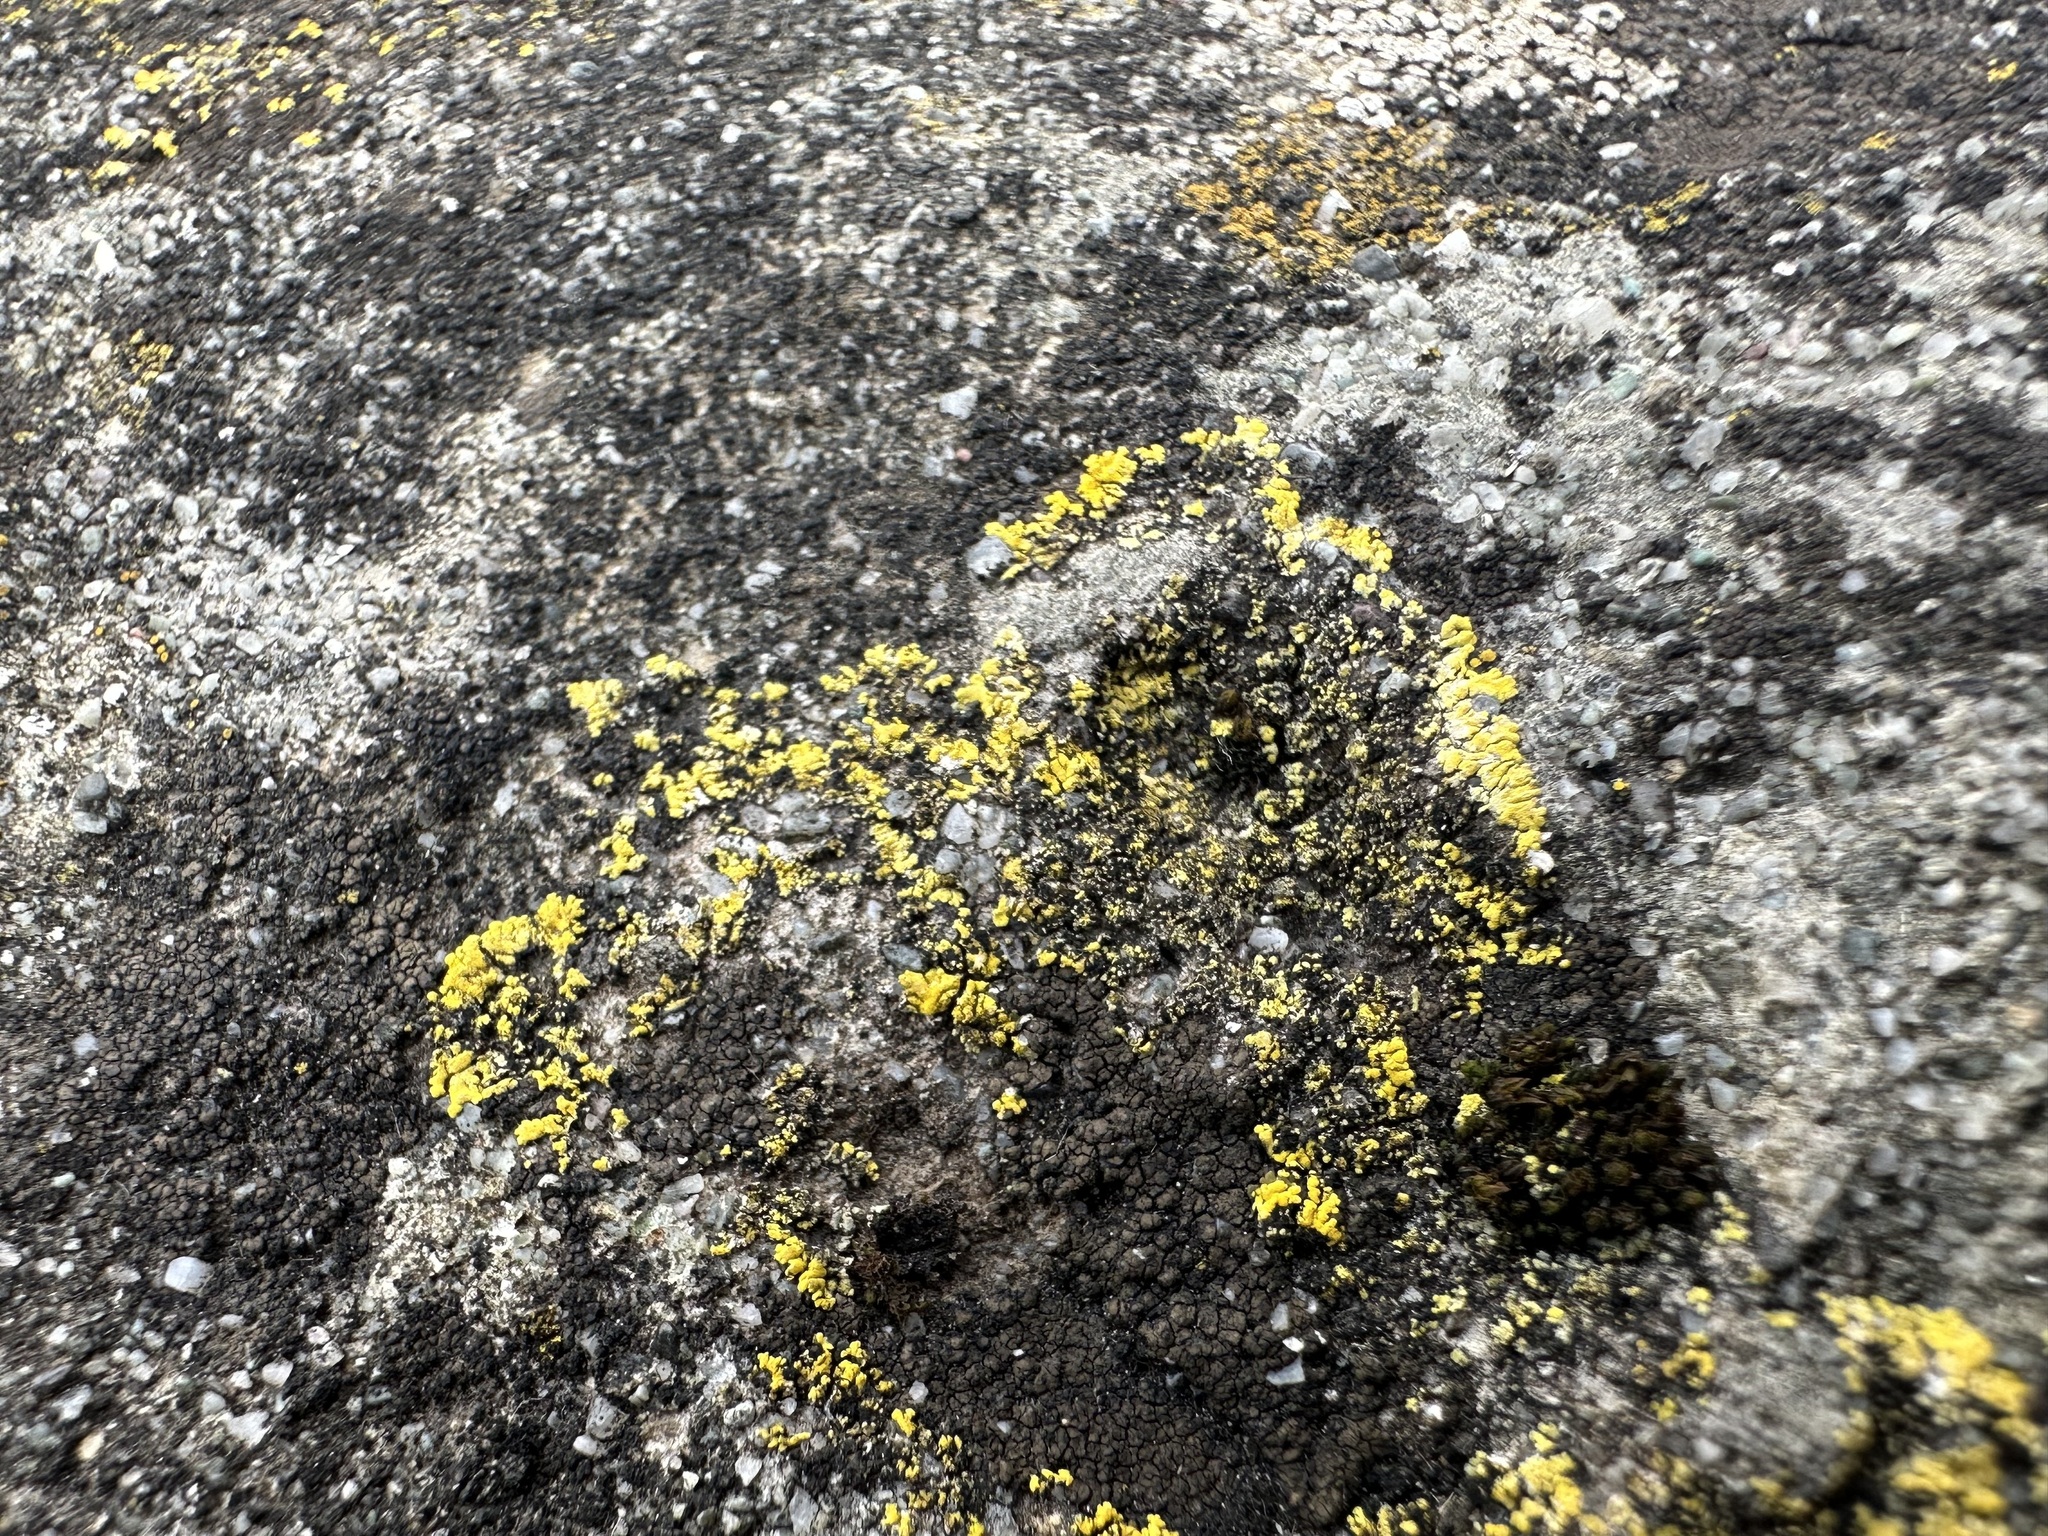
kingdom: Fungi
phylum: Ascomycota
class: Candelariomycetes
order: Candelariales
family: Candelariaceae
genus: Candelariella
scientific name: Candelariella medians
